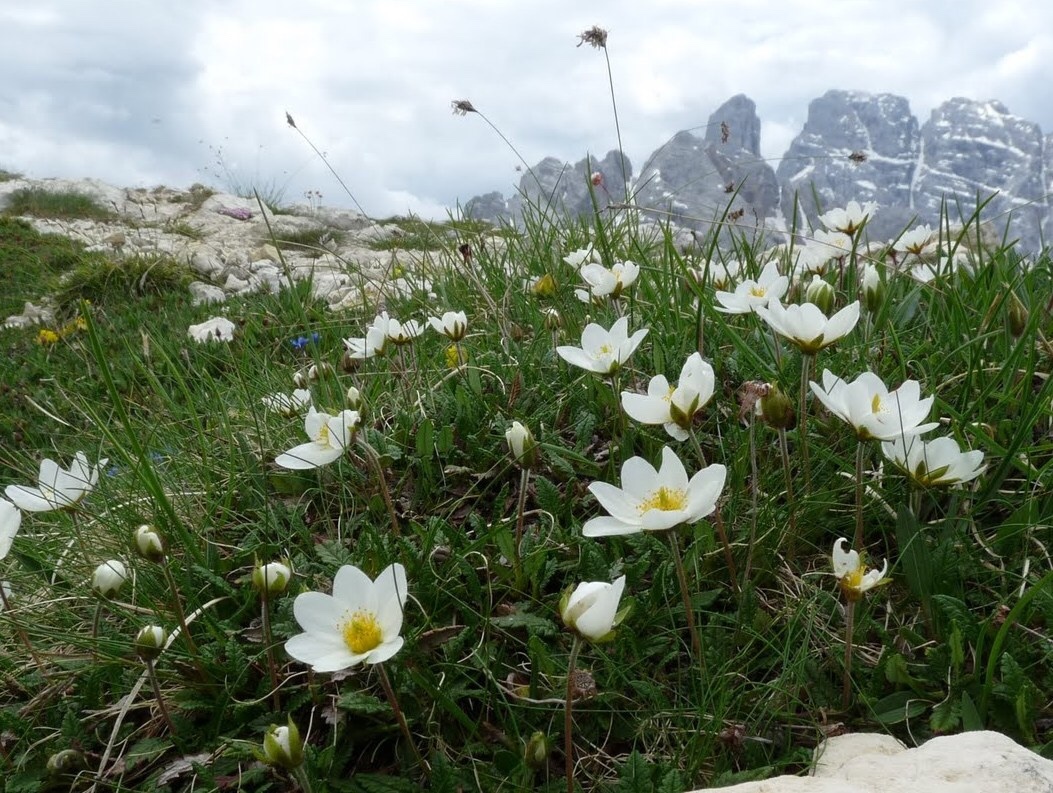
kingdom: Plantae
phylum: Tracheophyta
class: Magnoliopsida
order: Rosales
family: Rosaceae
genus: Dryas
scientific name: Dryas octopetala
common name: Eight-petal mountain-avens
